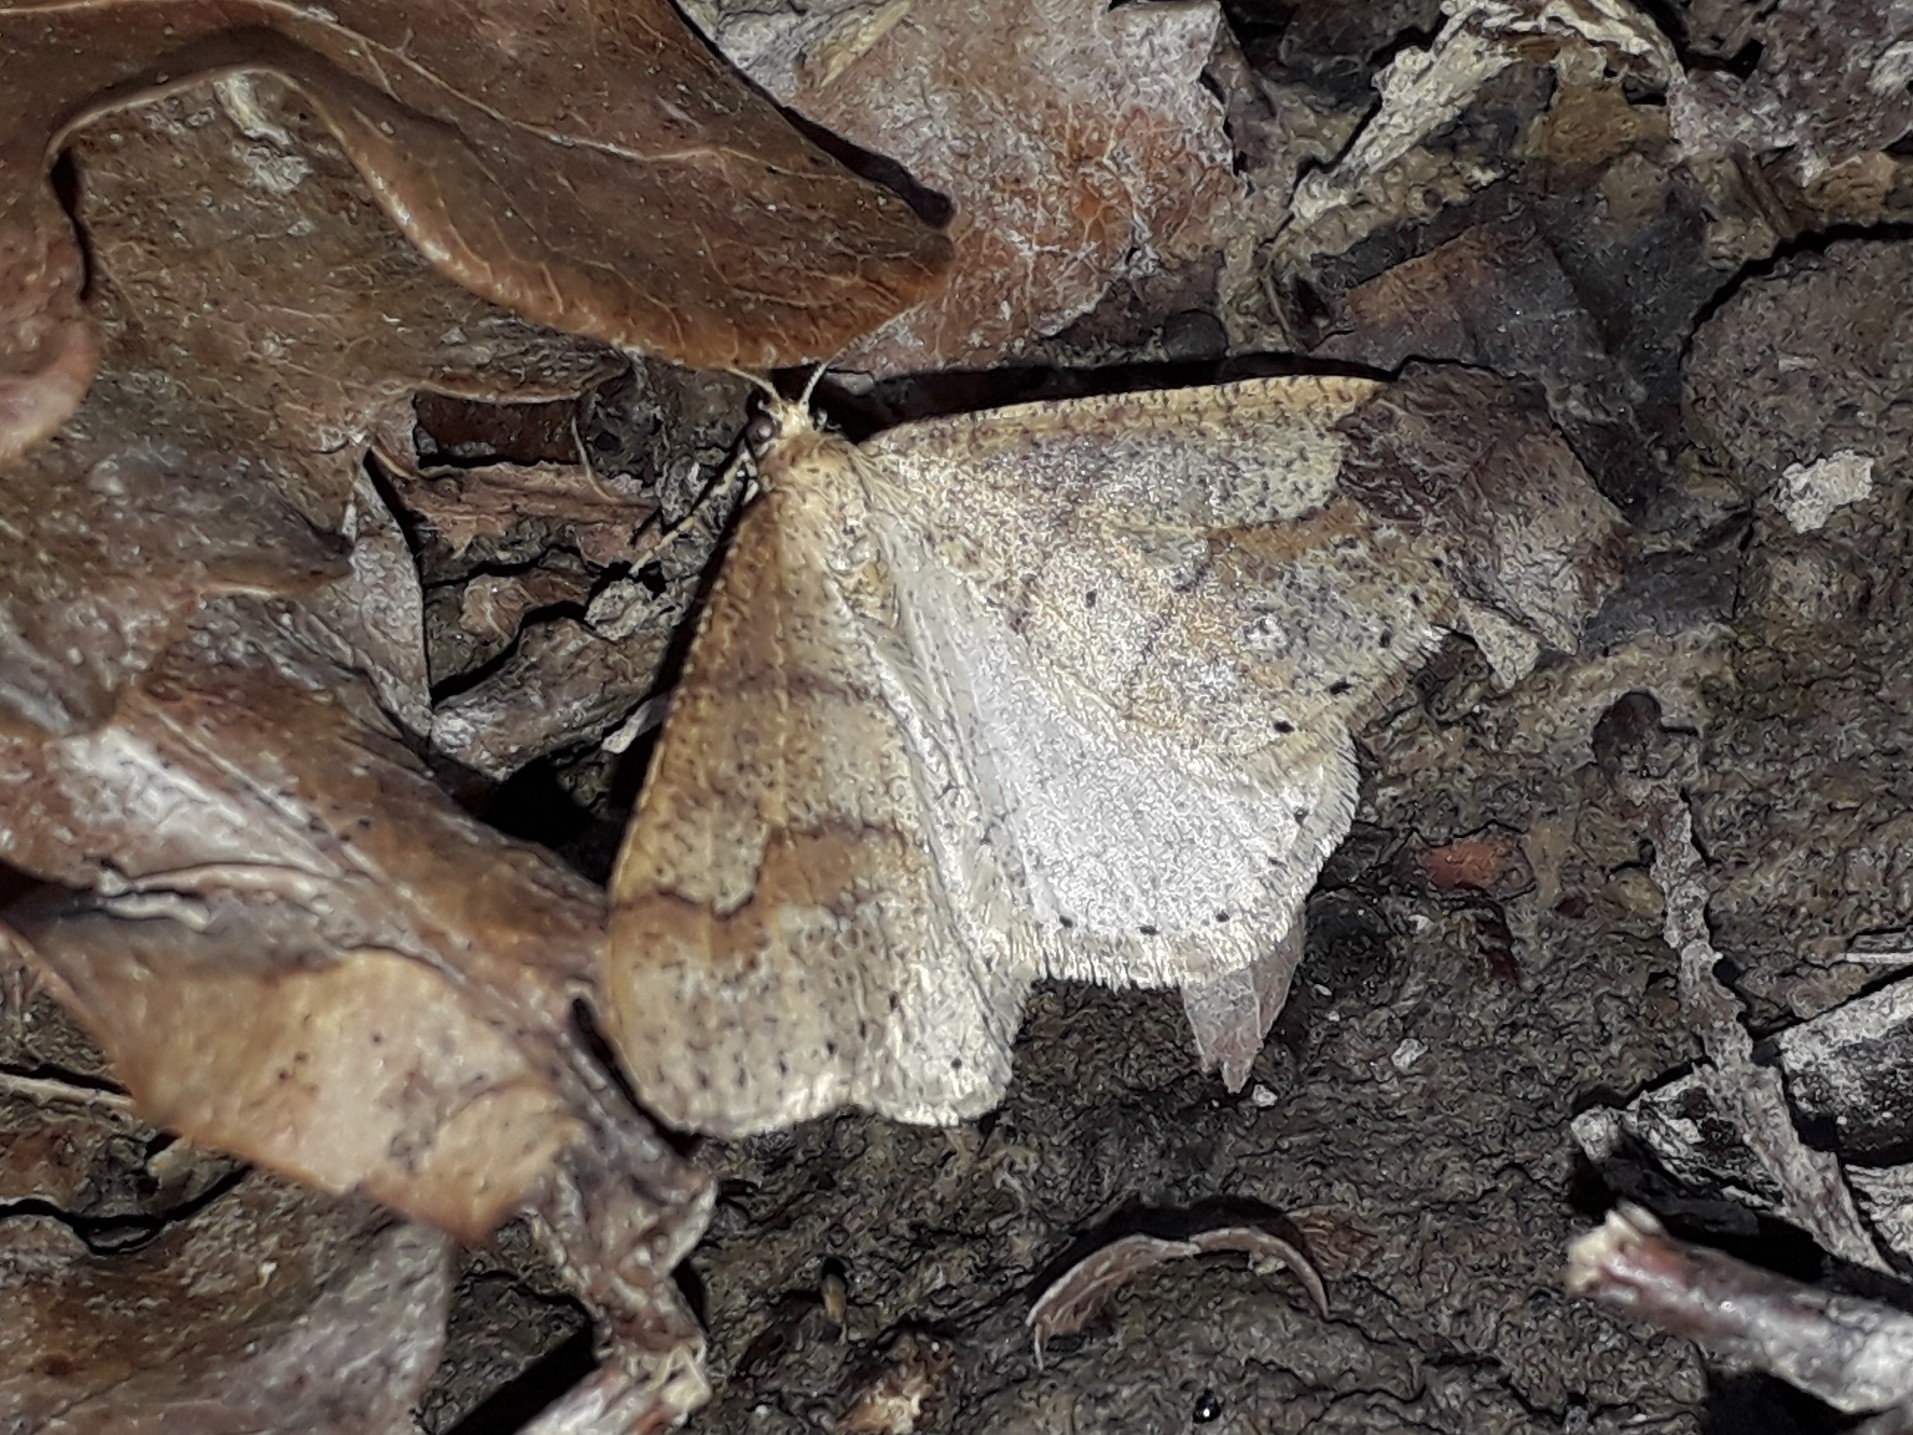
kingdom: Animalia
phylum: Arthropoda
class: Insecta
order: Lepidoptera
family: Geometridae
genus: Agriopis
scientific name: Agriopis marginaria
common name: Dotted border
